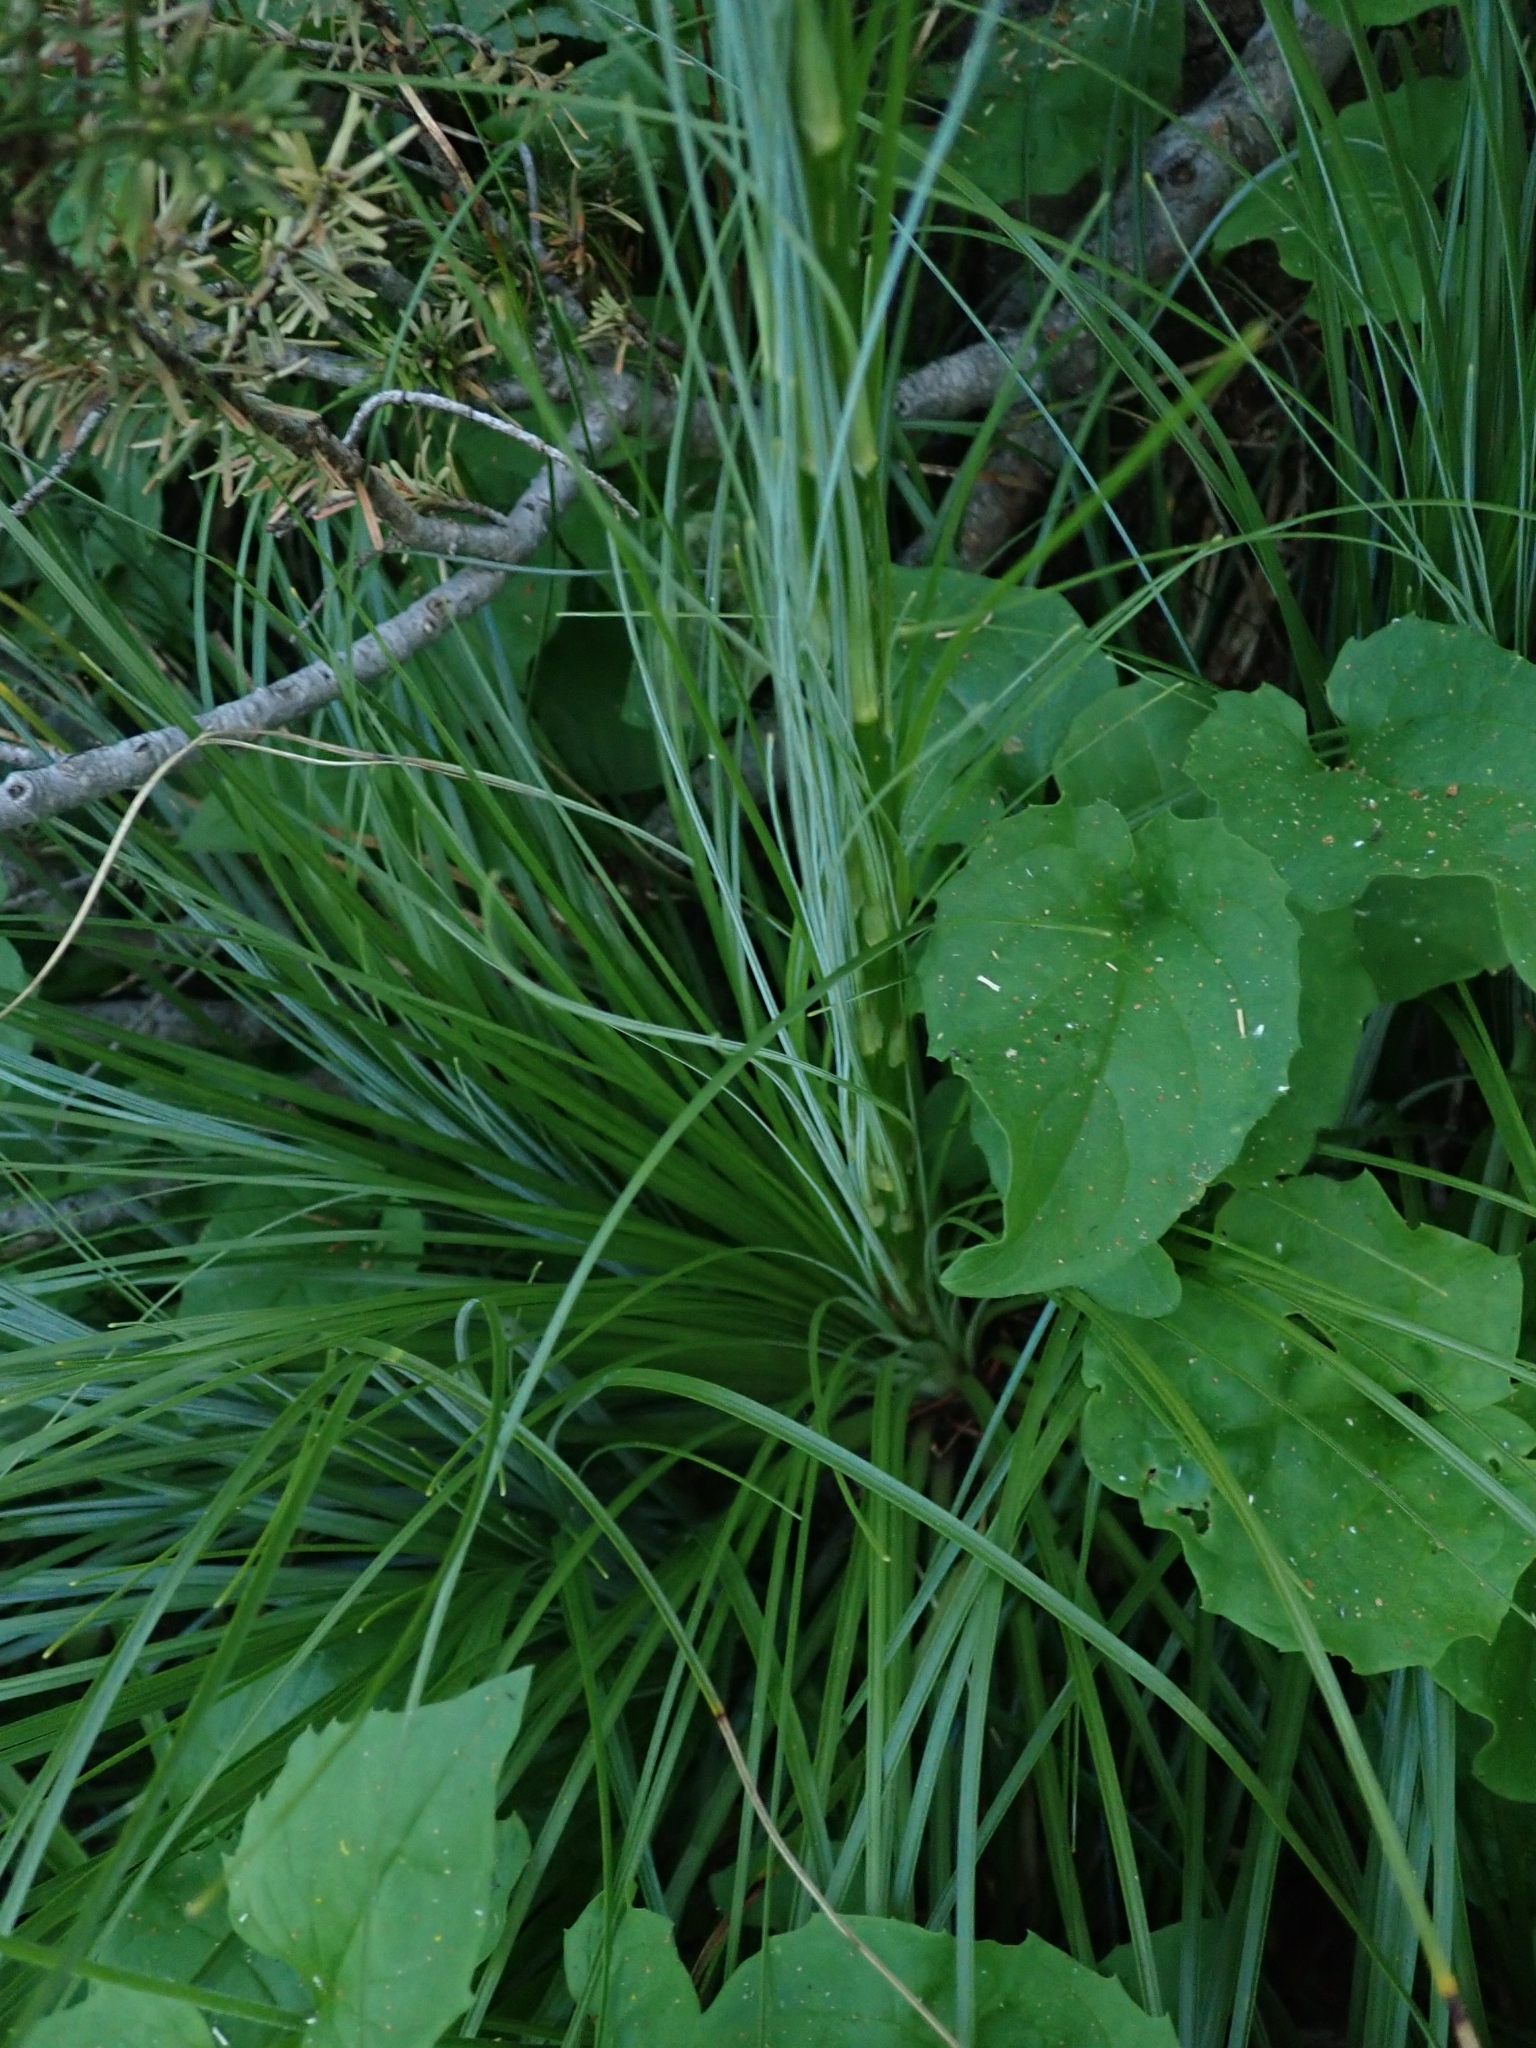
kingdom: Plantae
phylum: Tracheophyta
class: Liliopsida
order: Liliales
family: Melanthiaceae
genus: Xerophyllum
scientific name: Xerophyllum tenax
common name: Bear-grass
